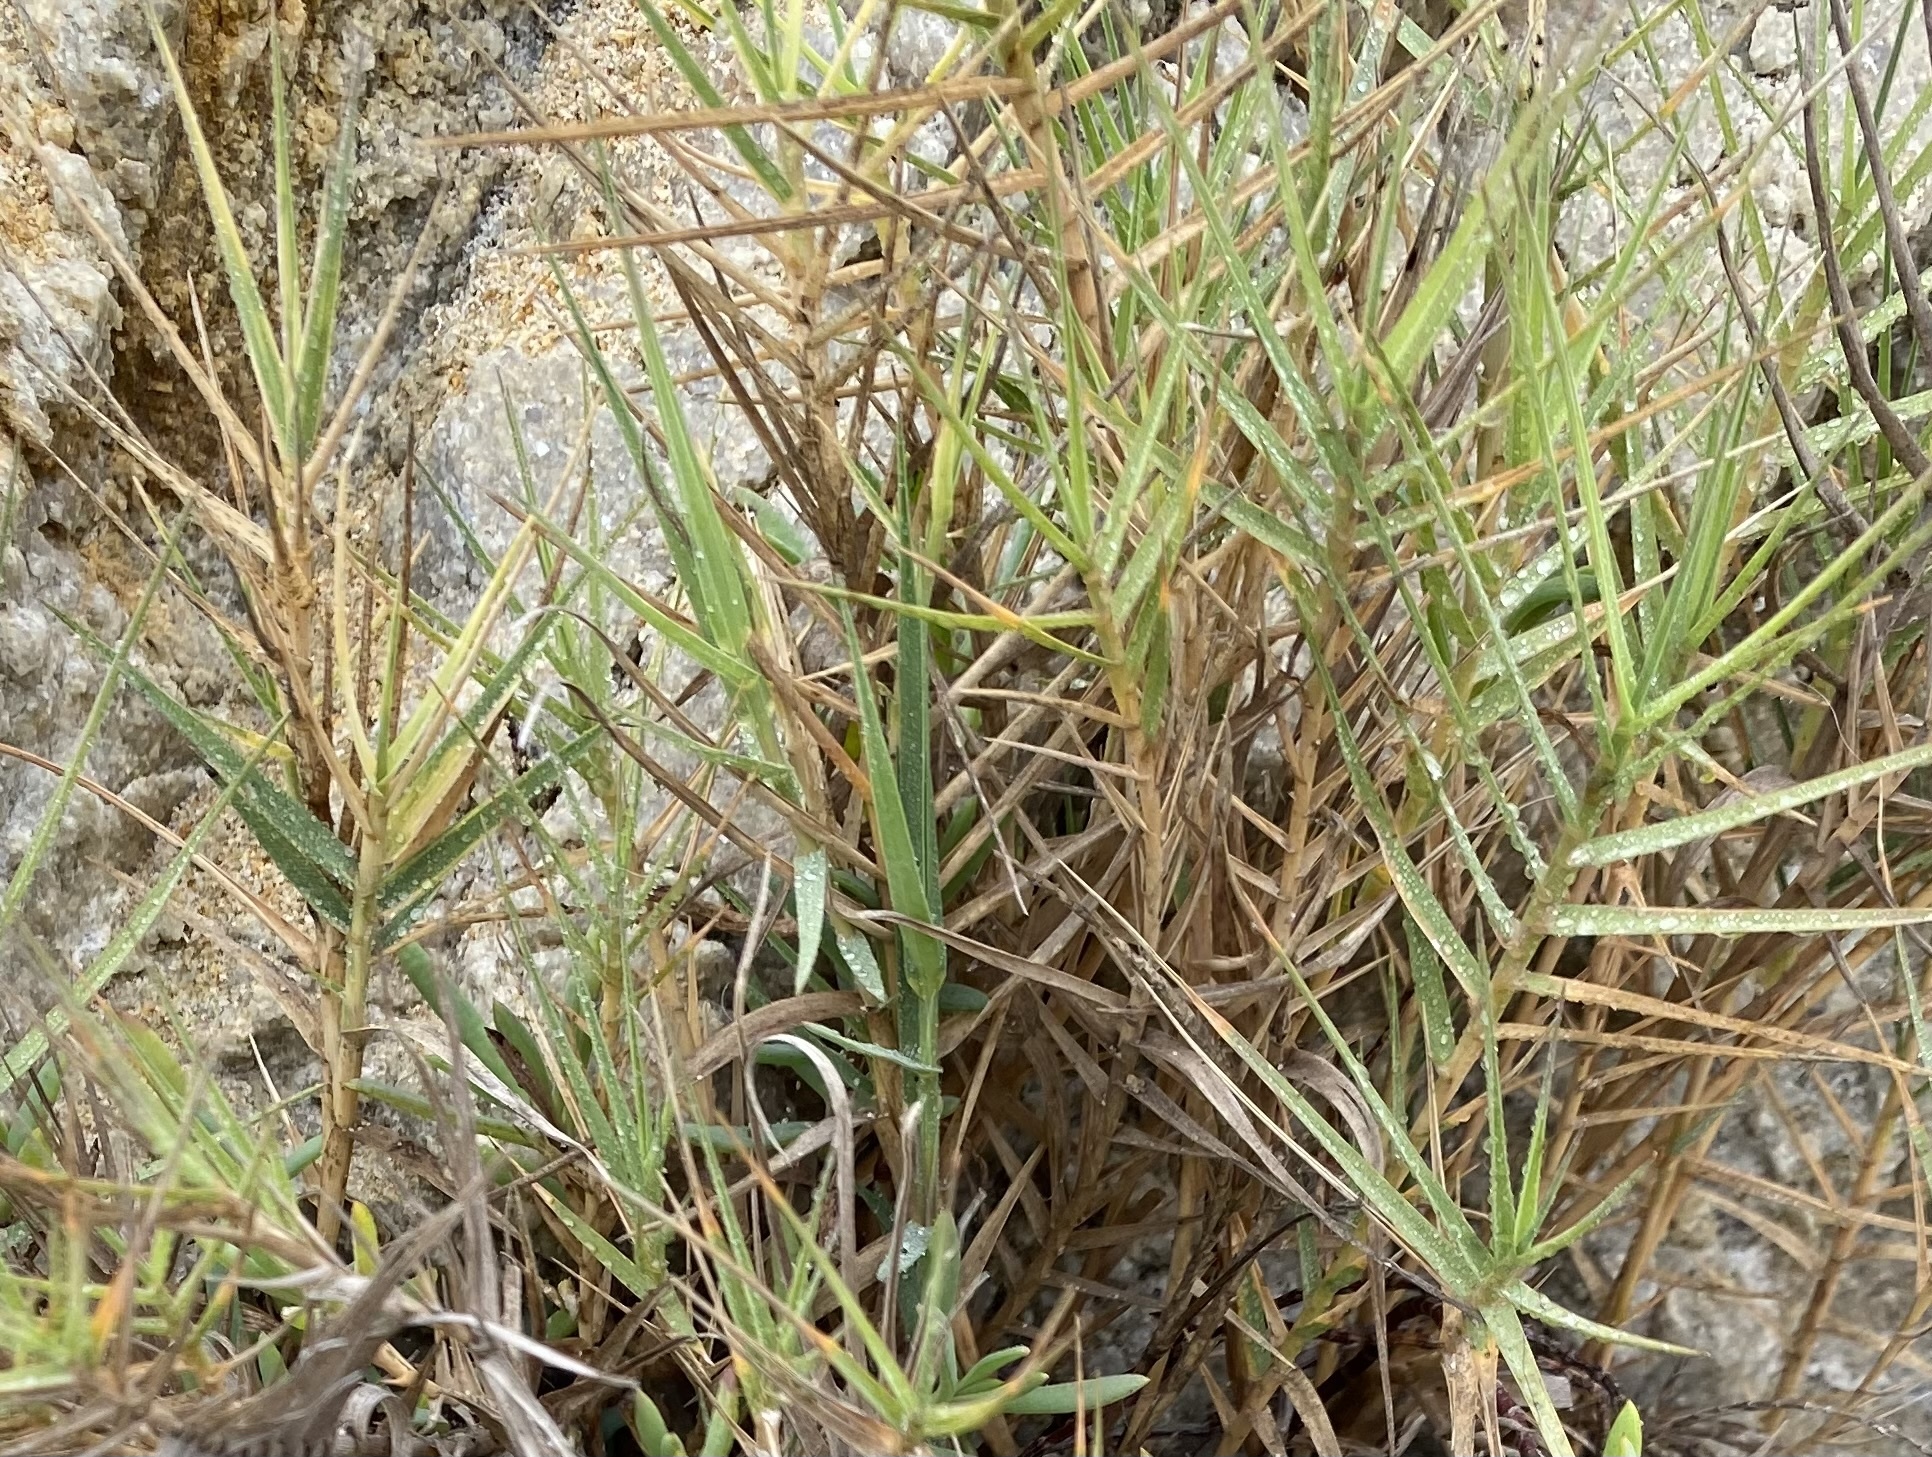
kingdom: Plantae
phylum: Tracheophyta
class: Liliopsida
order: Poales
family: Poaceae
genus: Distichlis
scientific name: Distichlis spicata
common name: Saltgrass
